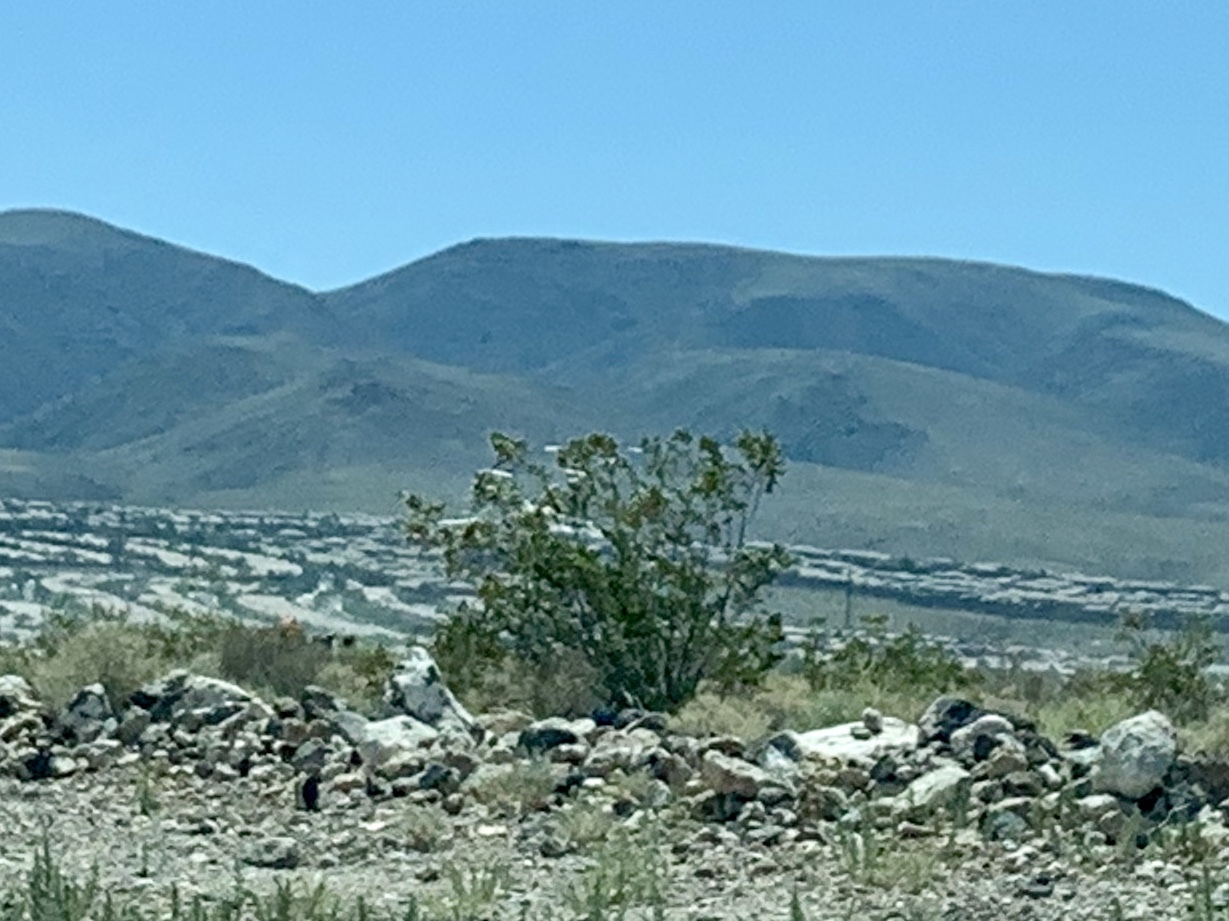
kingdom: Plantae
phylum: Tracheophyta
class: Magnoliopsida
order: Zygophyllales
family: Zygophyllaceae
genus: Larrea
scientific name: Larrea tridentata
